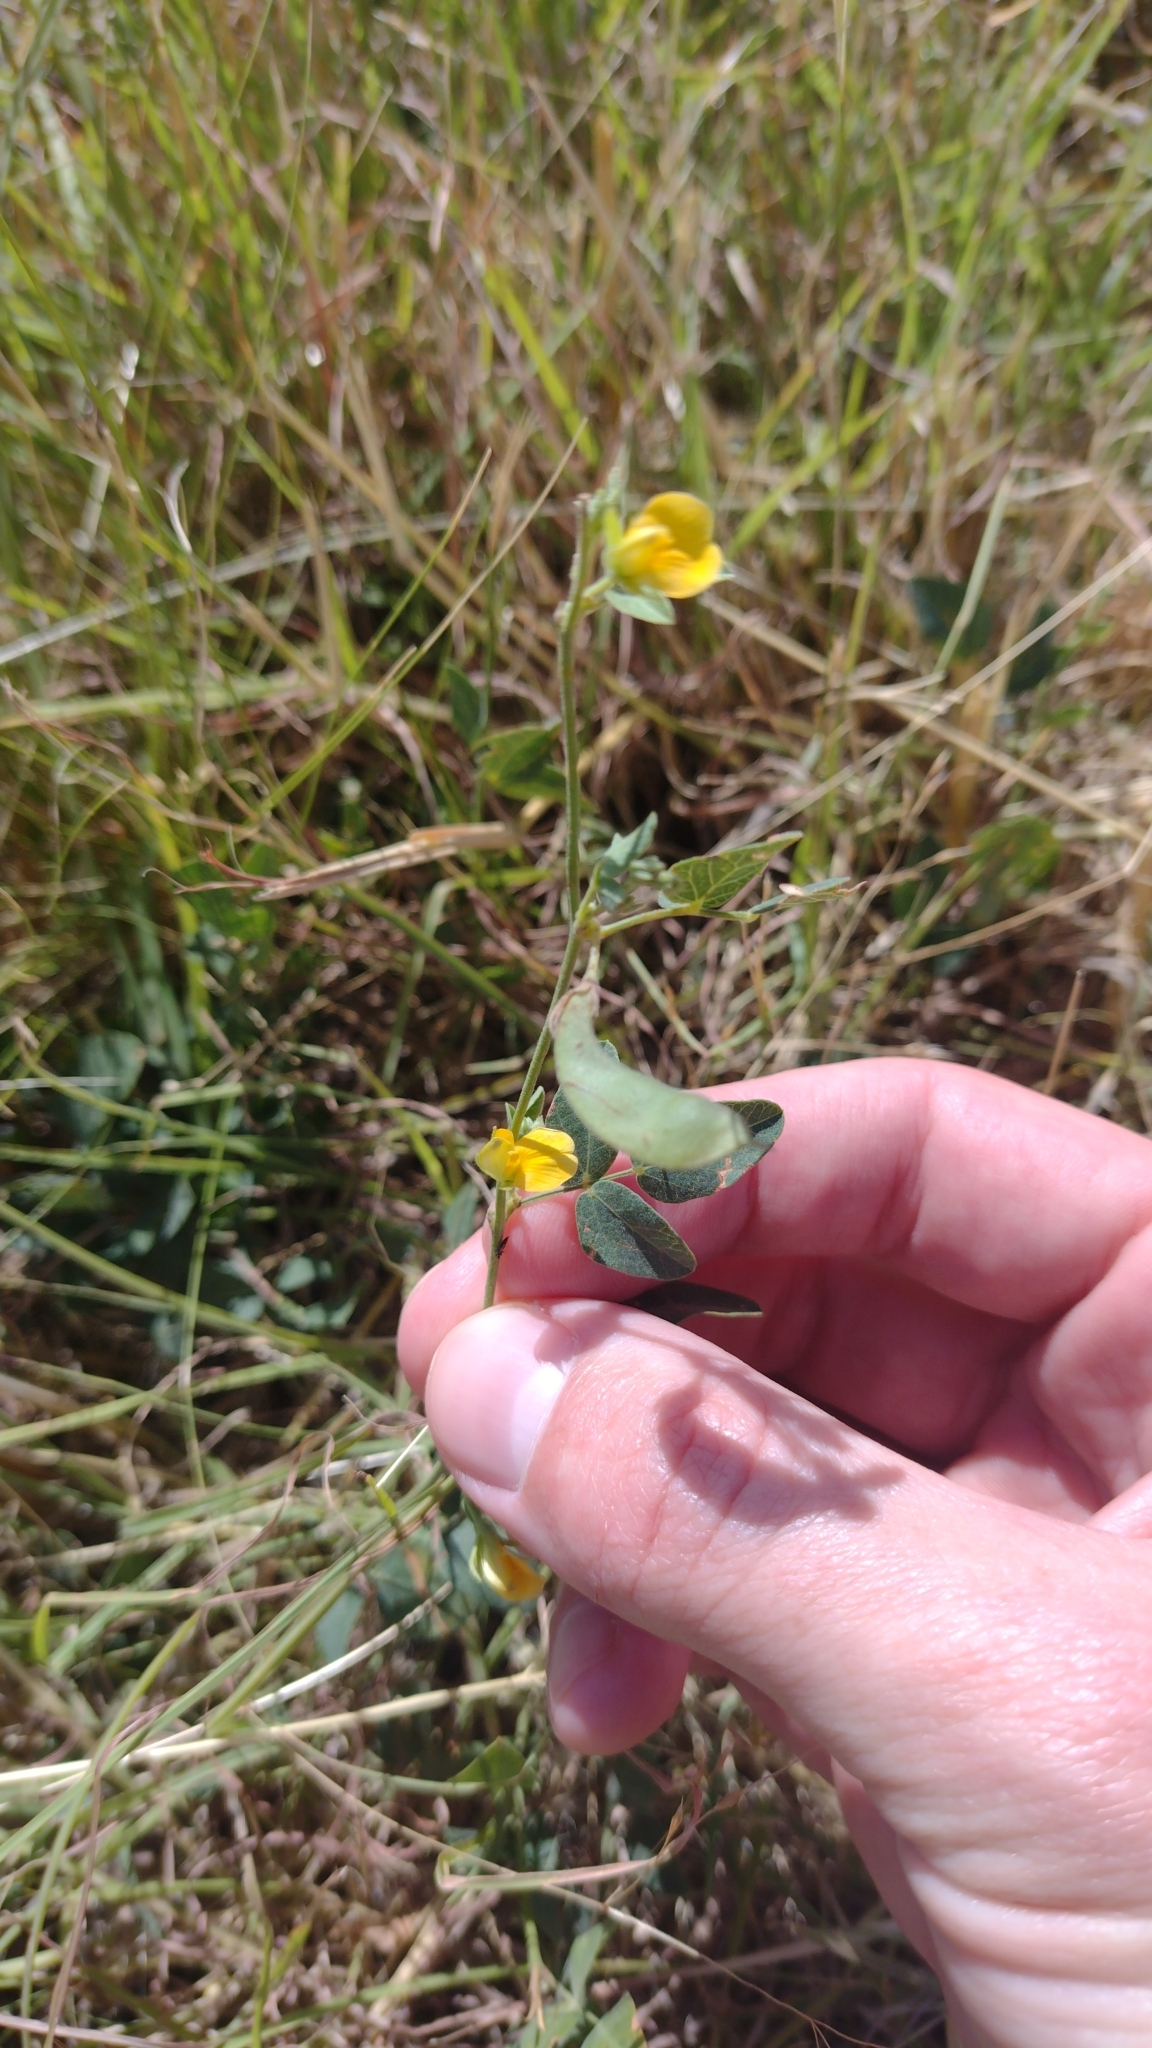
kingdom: Plantae
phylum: Tracheophyta
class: Magnoliopsida
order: Fabales
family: Fabaceae
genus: Rhynchosia
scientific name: Rhynchosia senna
